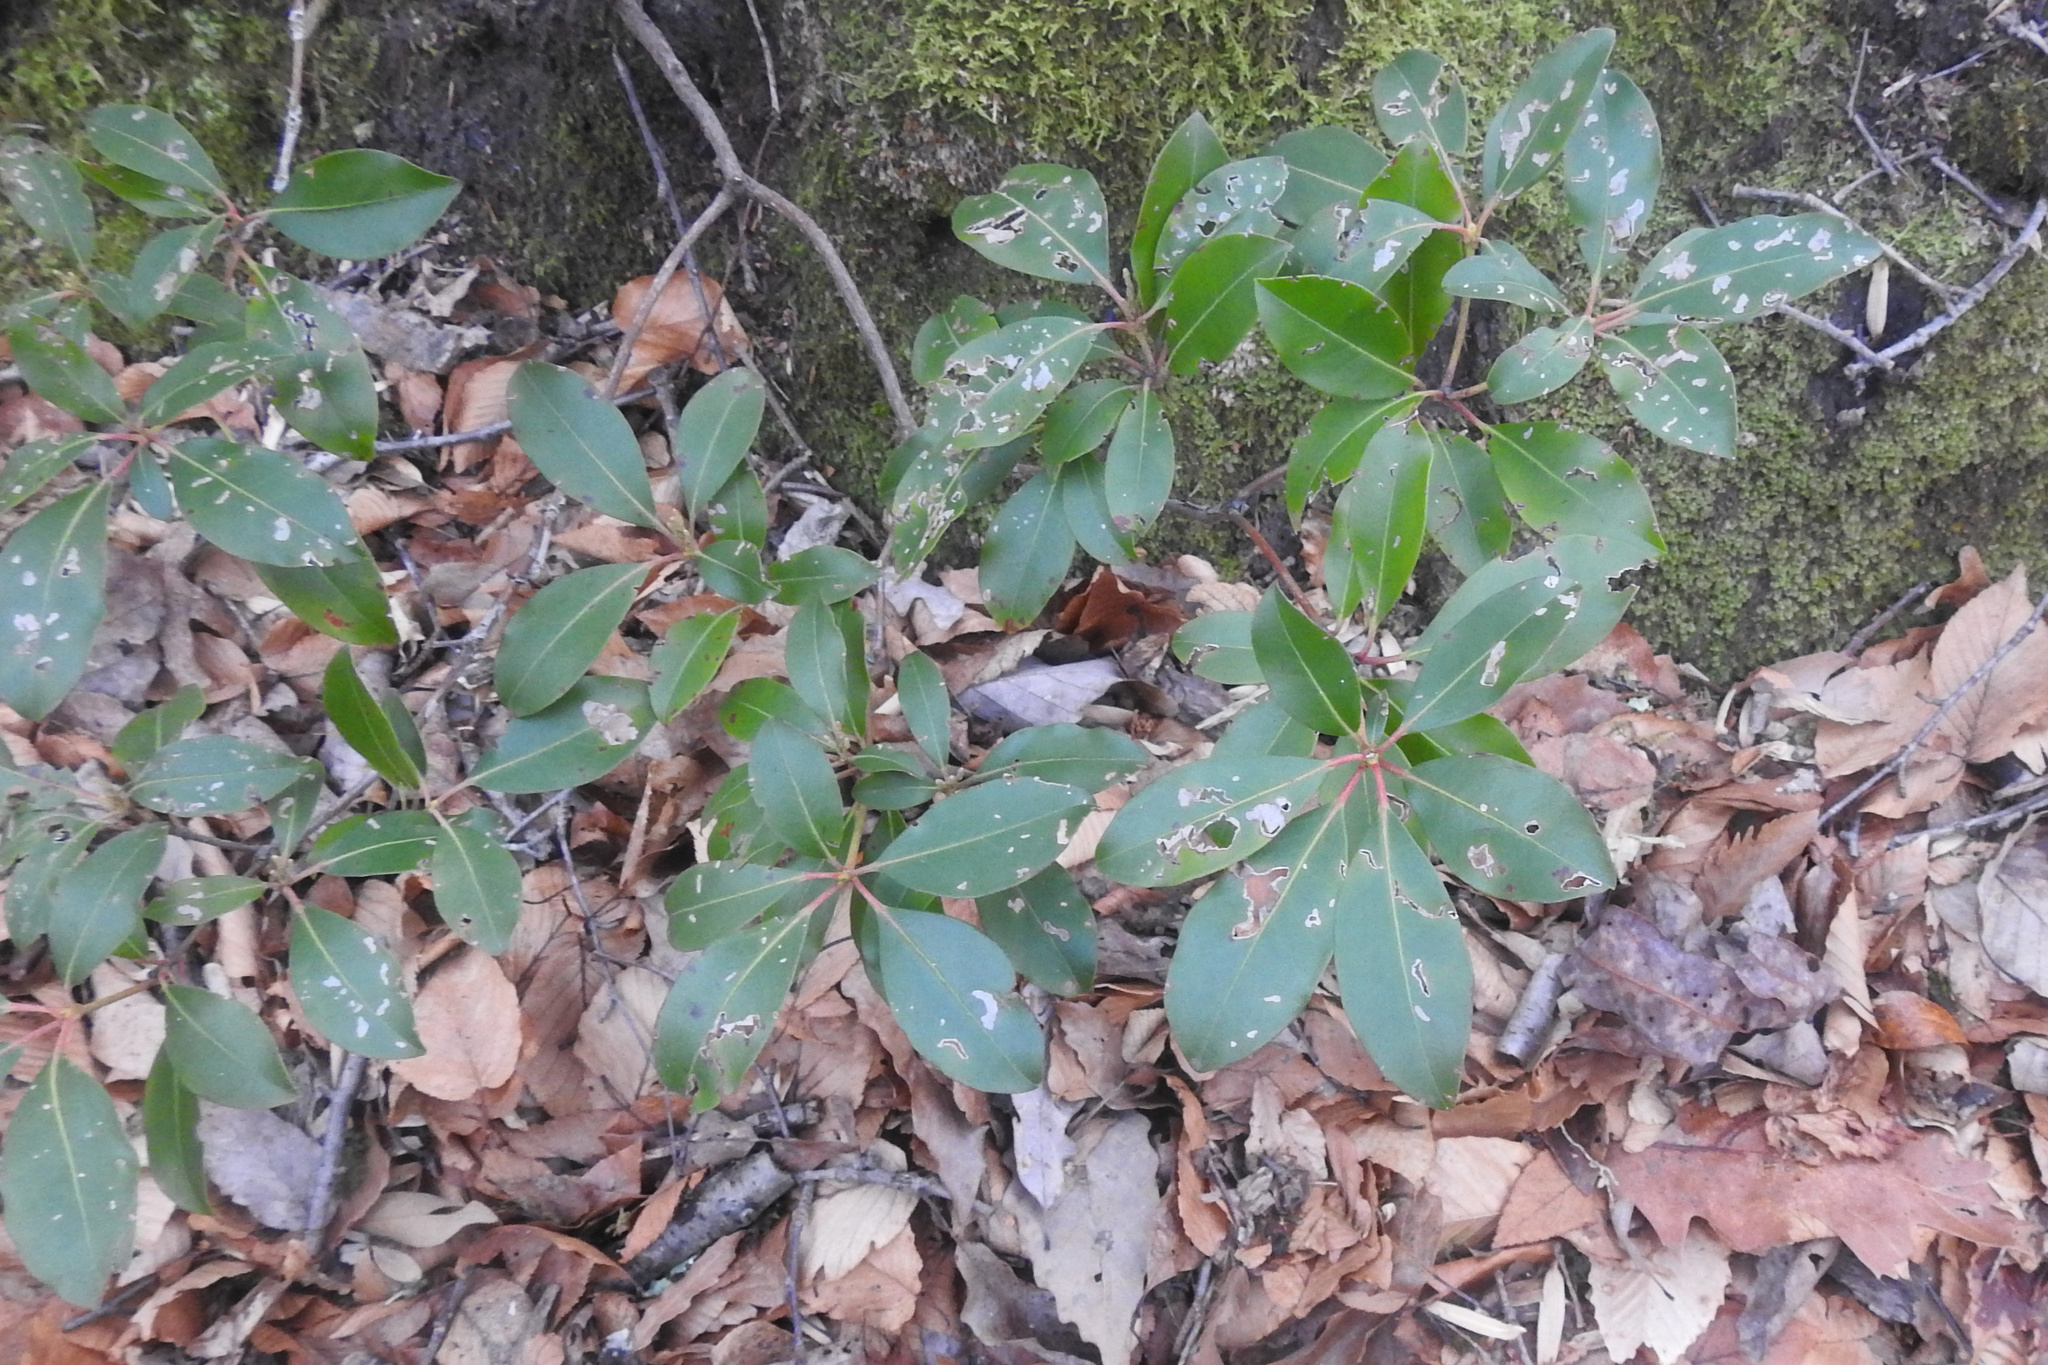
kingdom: Plantae
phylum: Tracheophyta
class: Magnoliopsida
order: Ericales
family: Ericaceae
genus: Kalmia
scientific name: Kalmia latifolia
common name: Mountain-laurel
